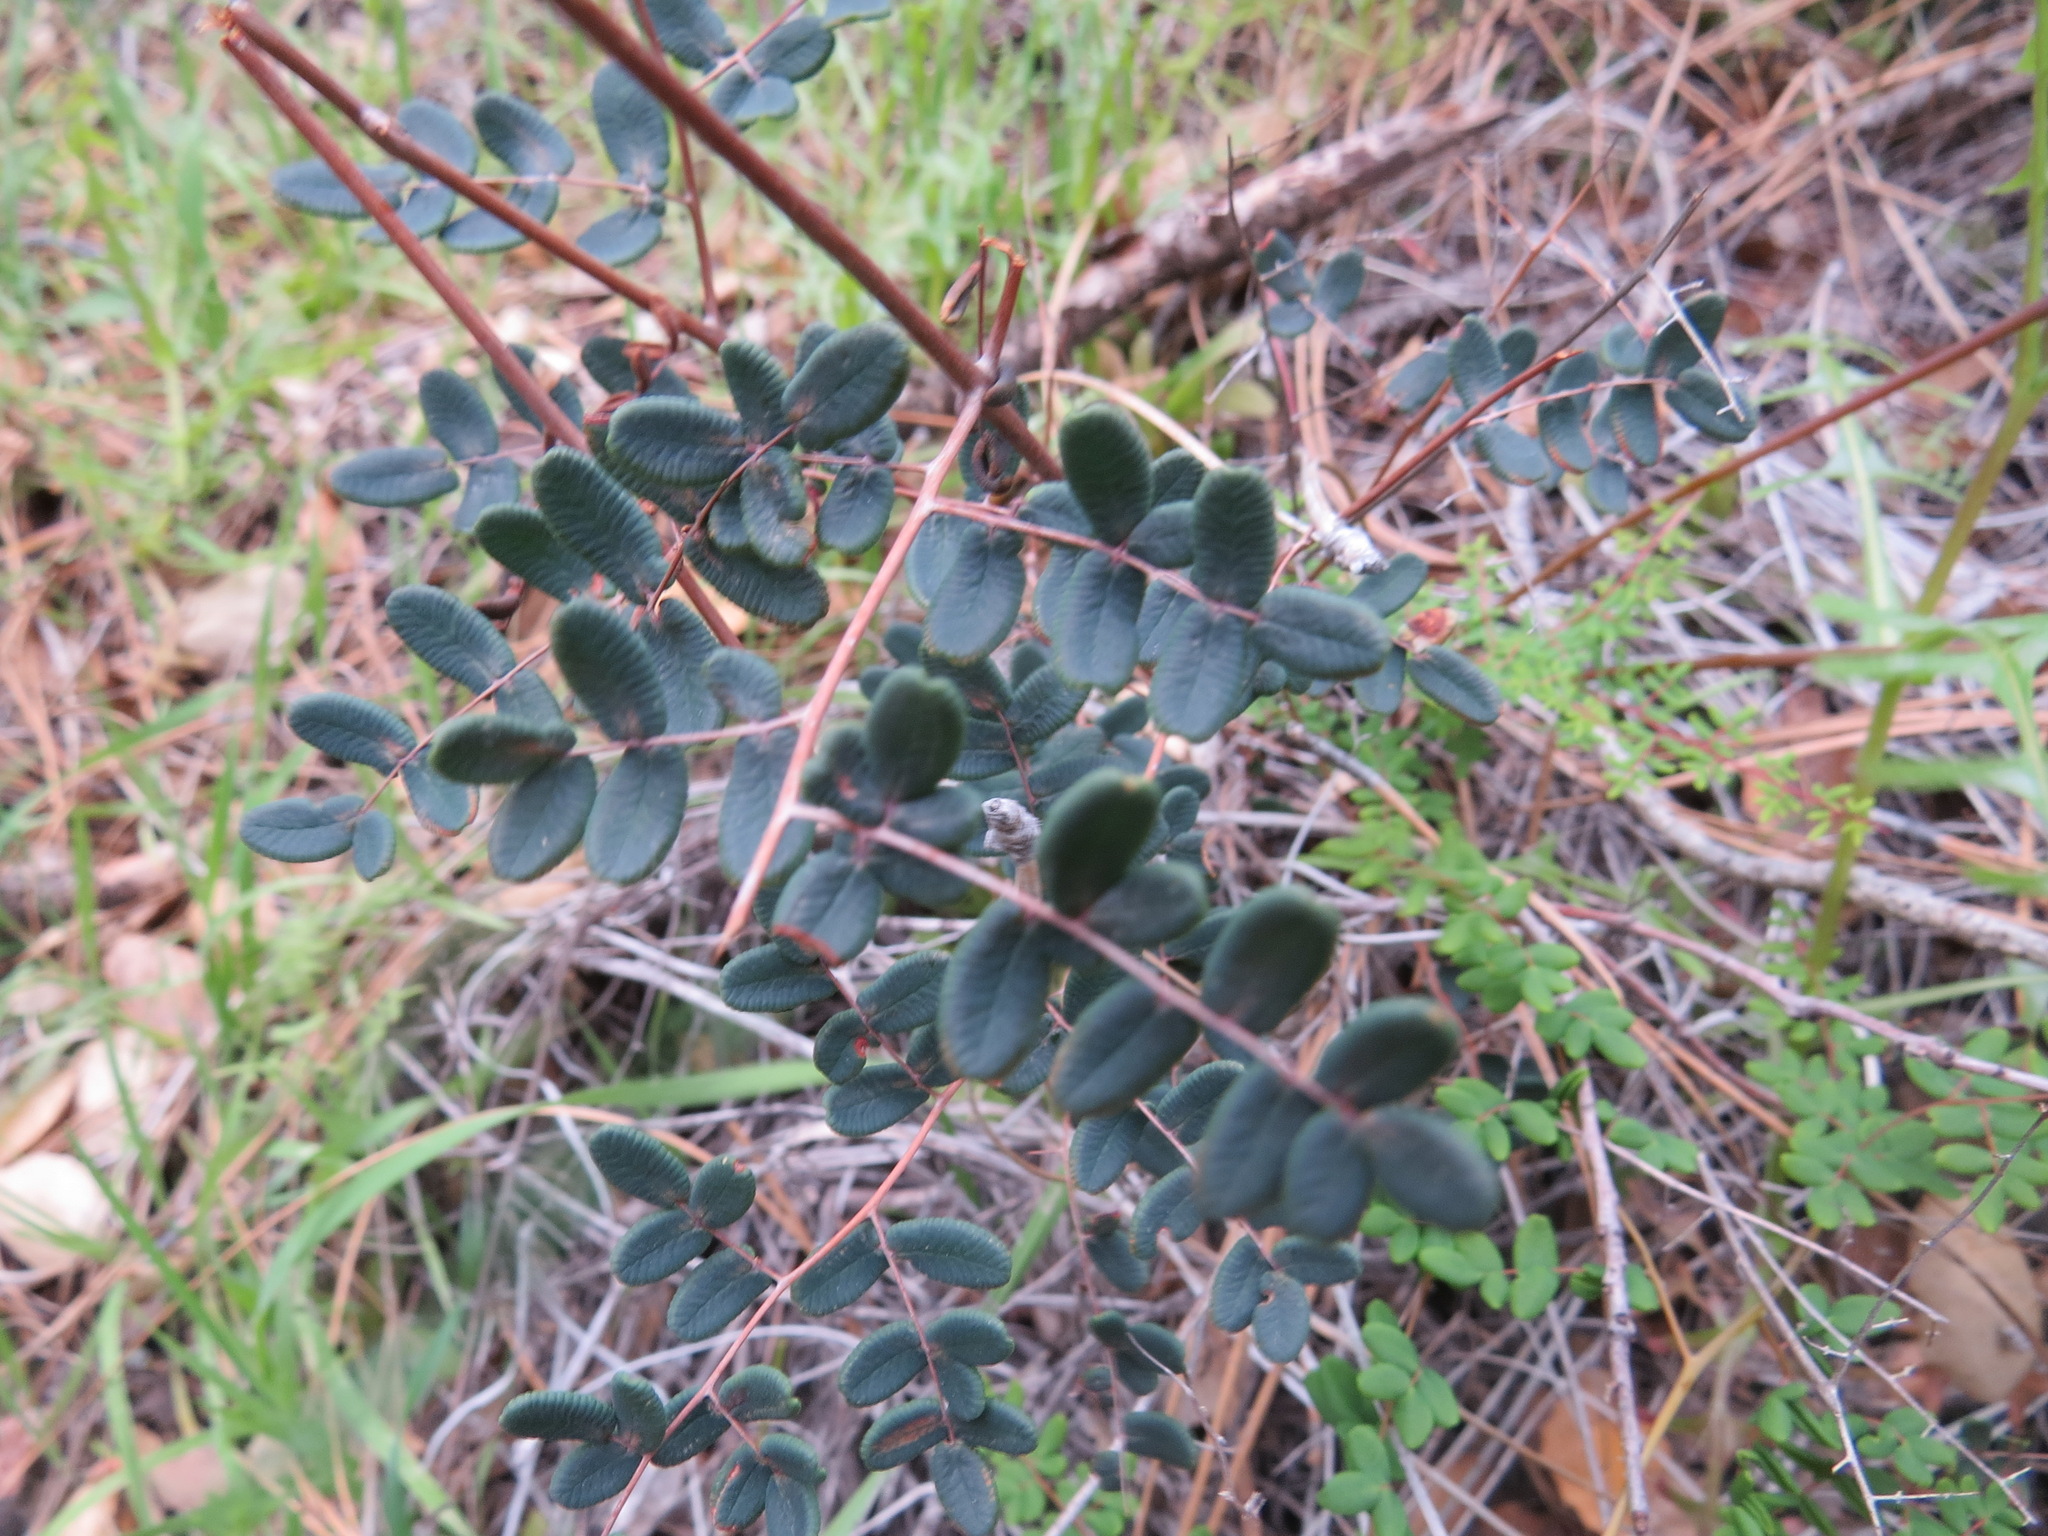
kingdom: Plantae
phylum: Tracheophyta
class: Polypodiopsida
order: Polypodiales
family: Pteridaceae
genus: Pellaea
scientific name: Pellaea andromedifolia
